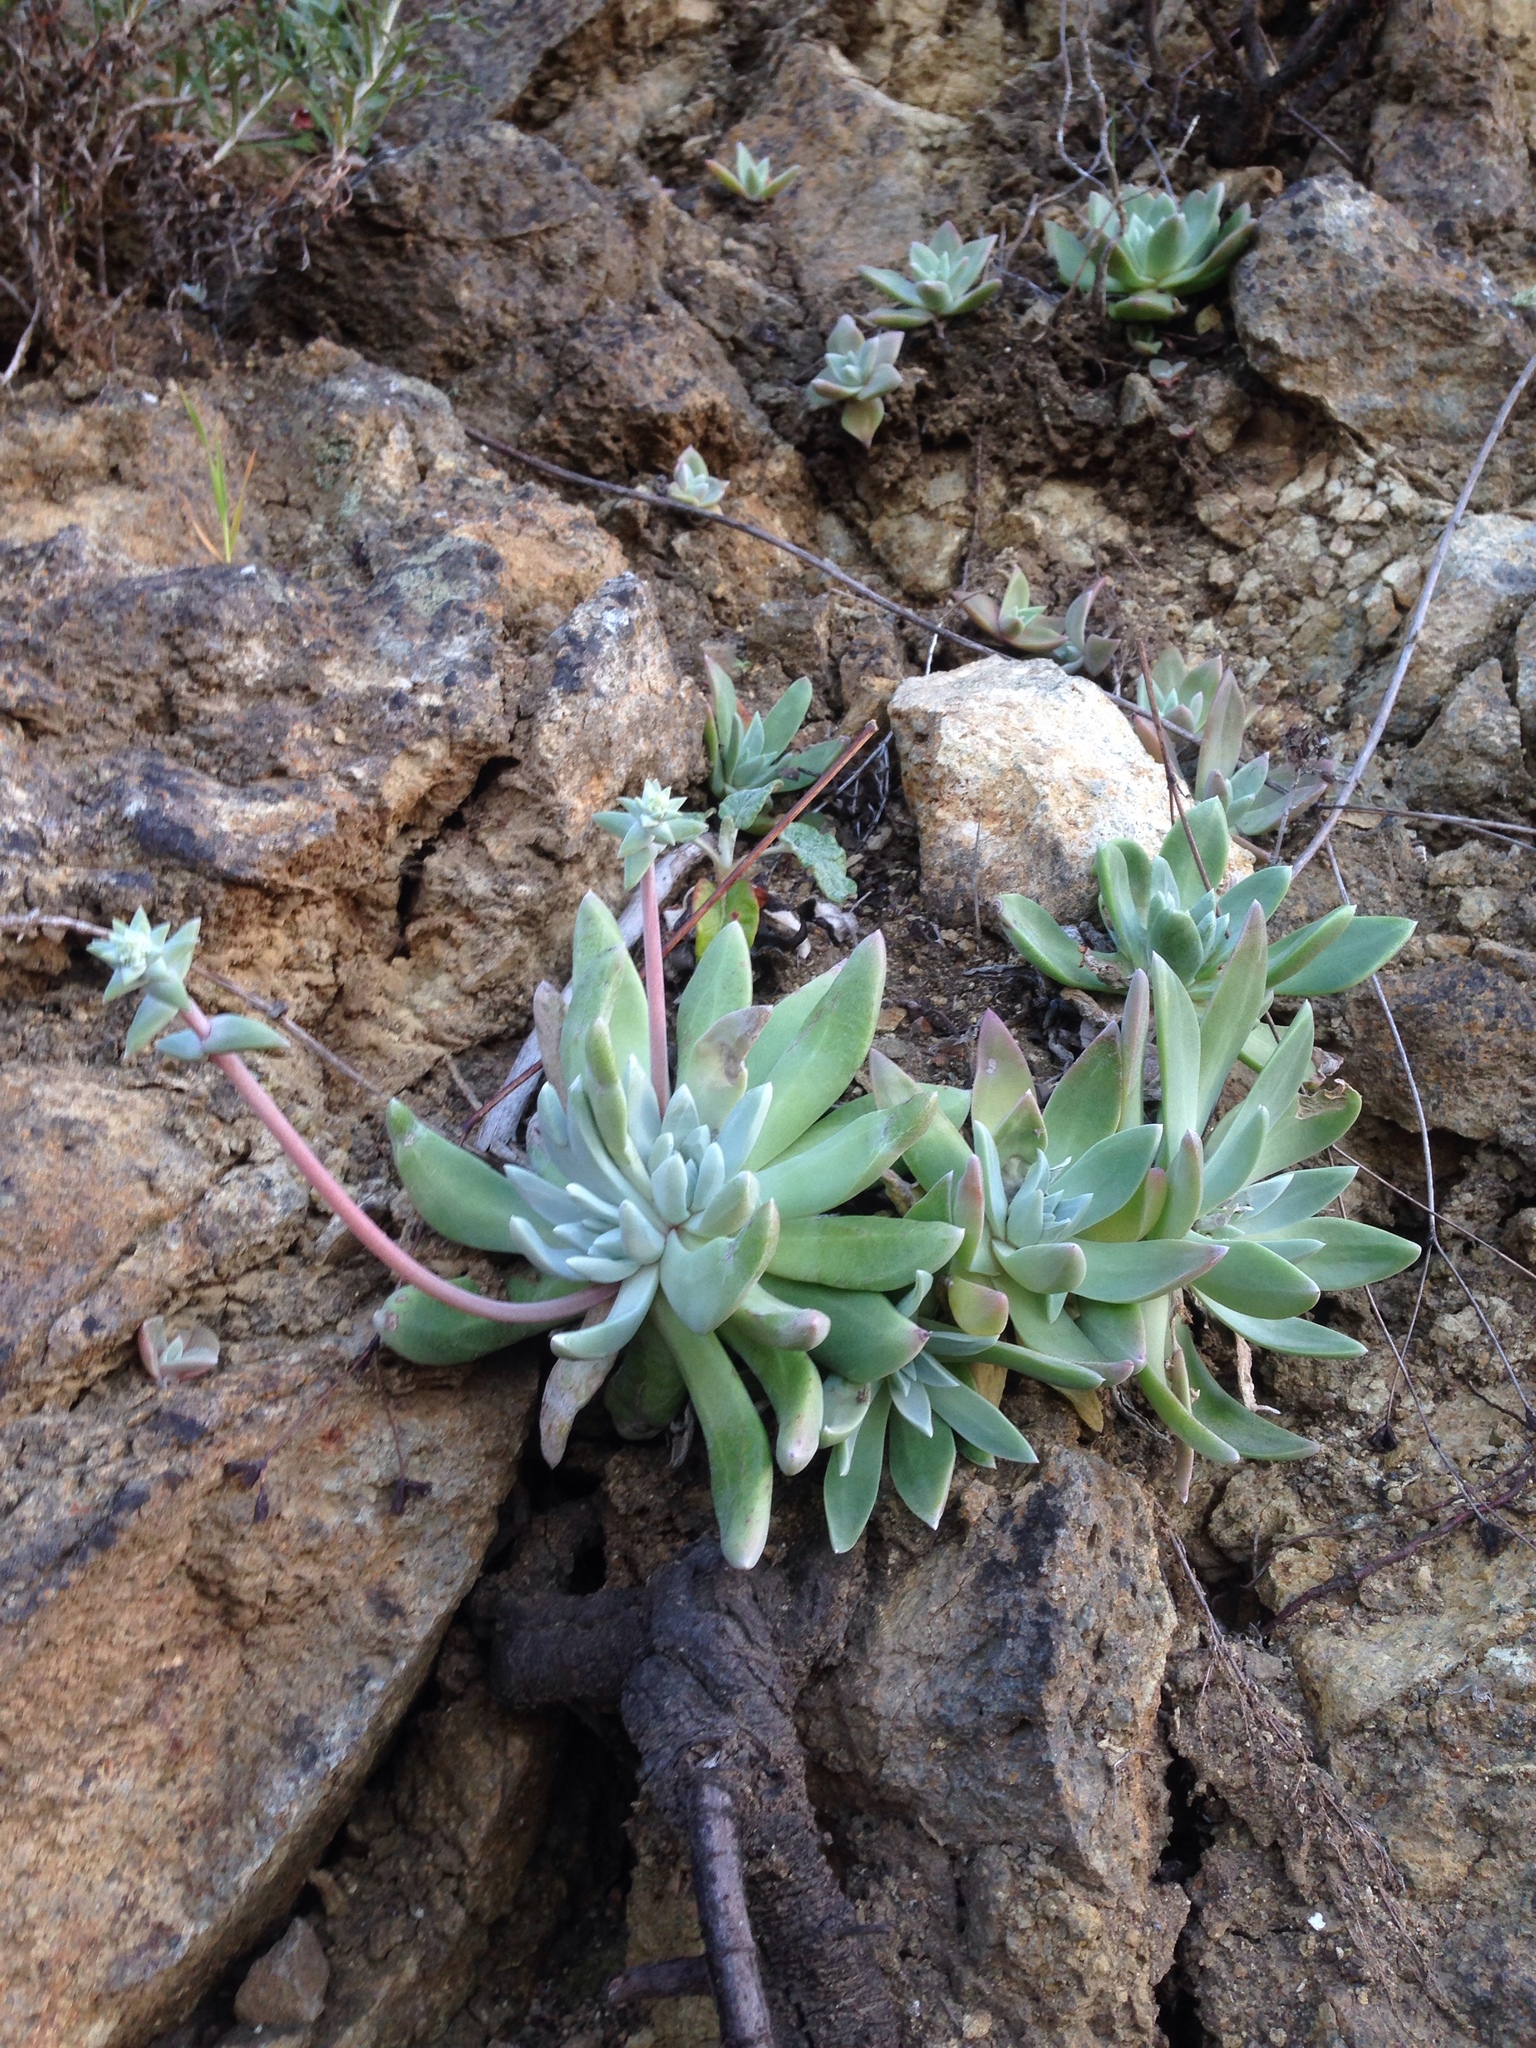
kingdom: Plantae
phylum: Tracheophyta
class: Magnoliopsida
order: Saxifragales
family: Crassulaceae
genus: Dudleya
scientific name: Dudleya greenei
